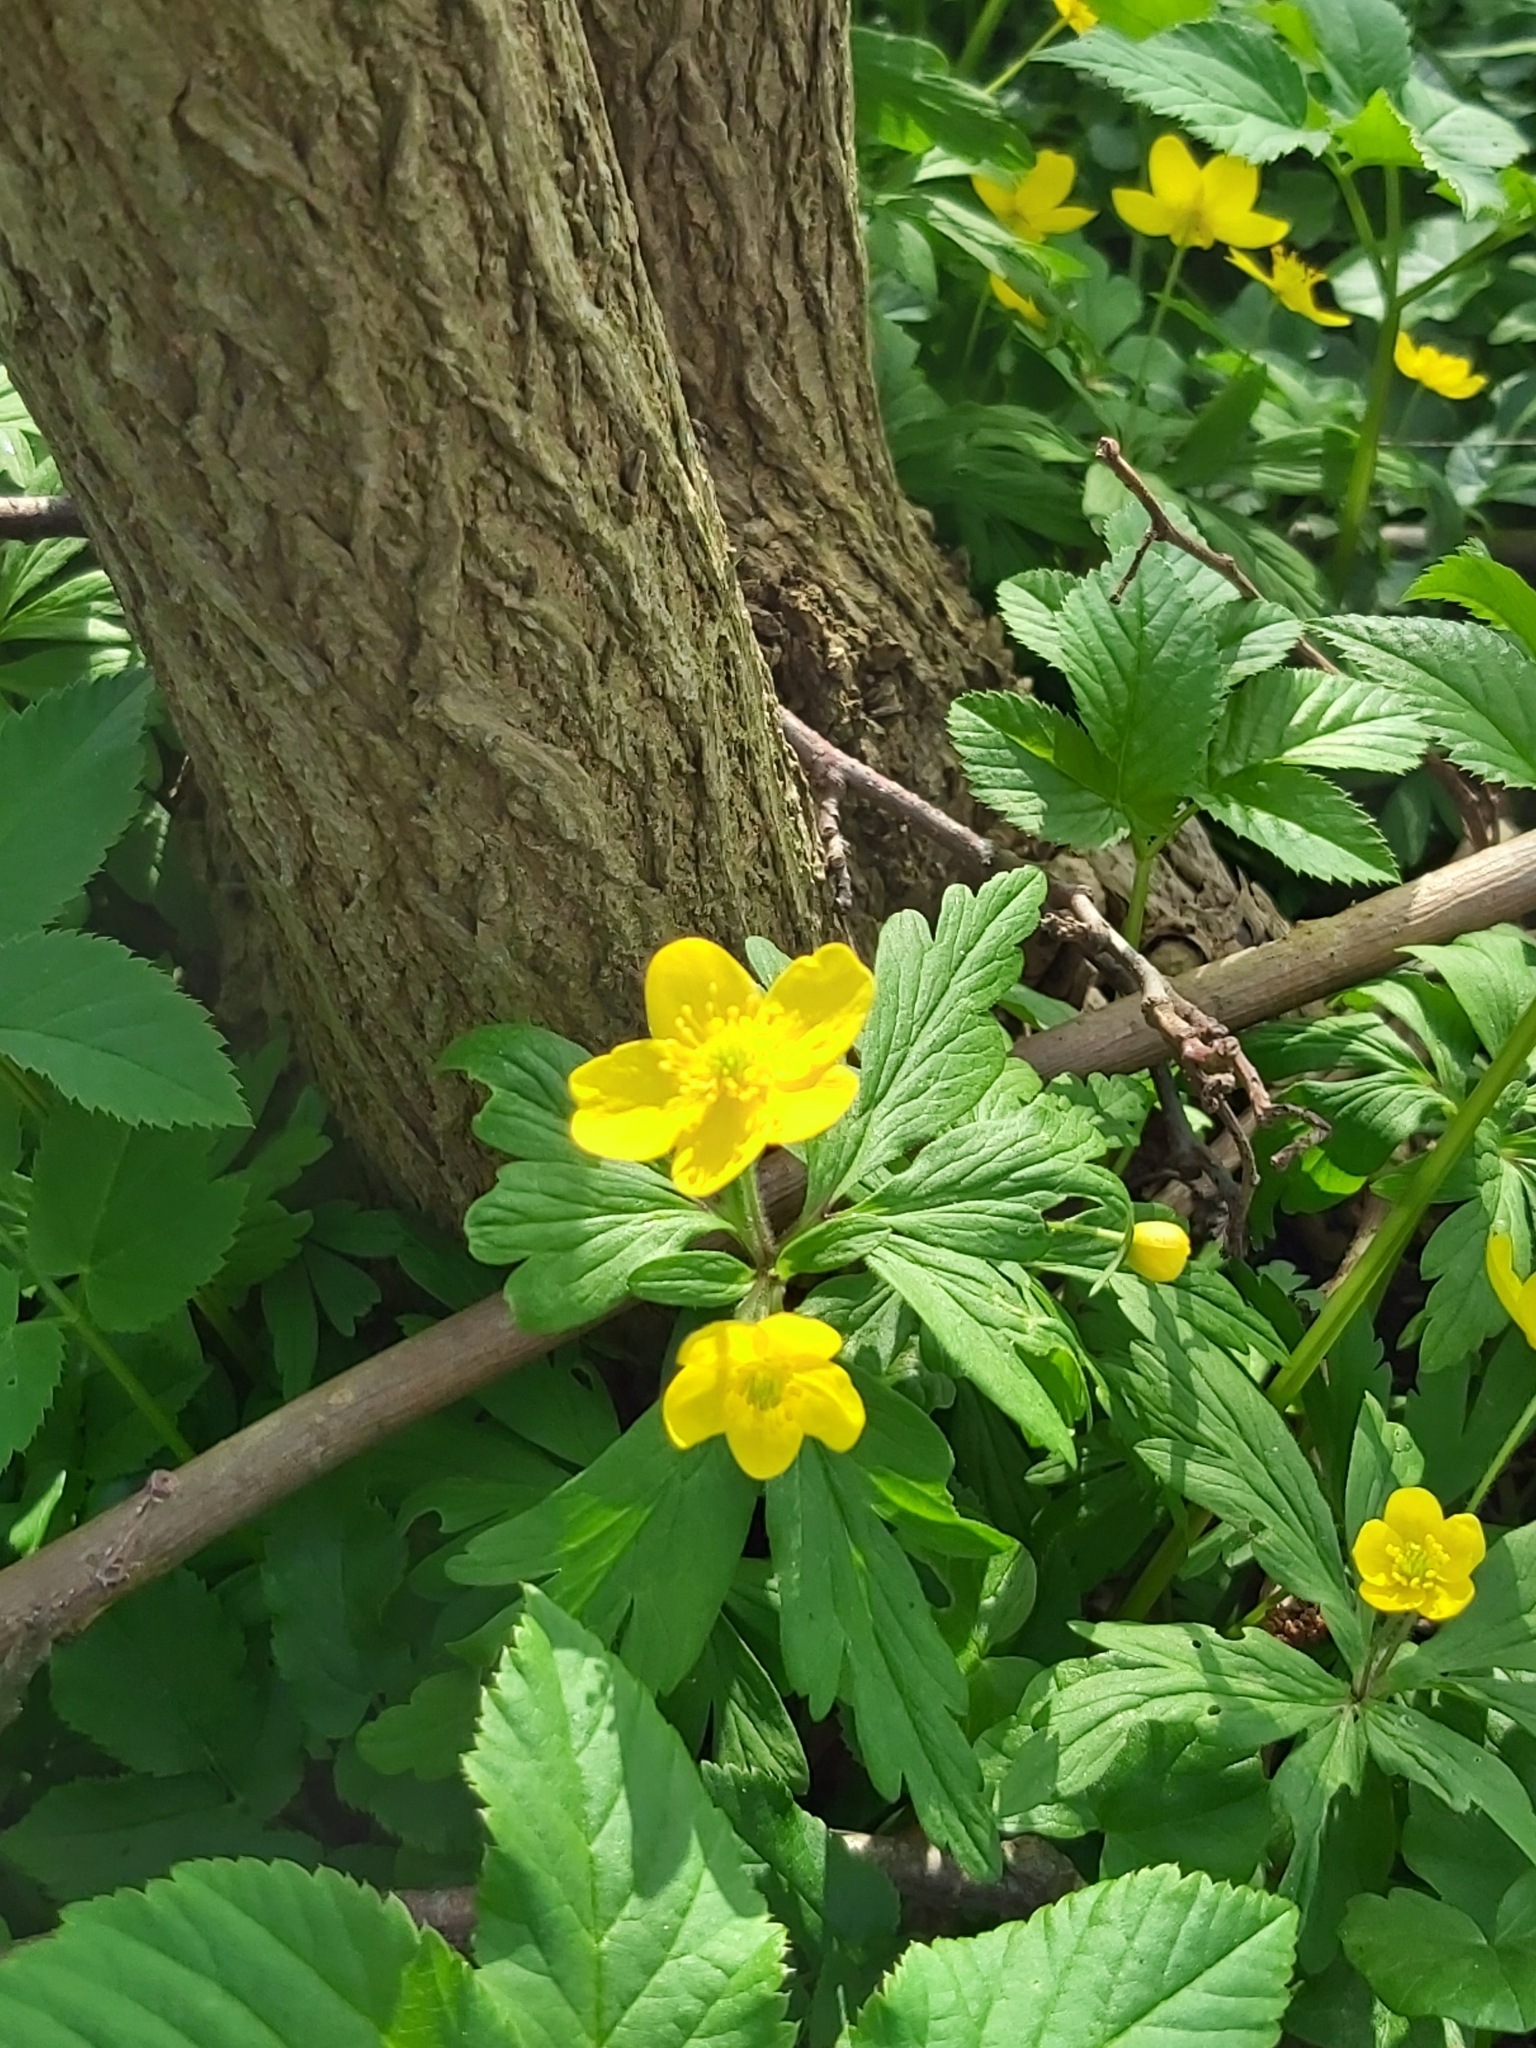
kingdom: Plantae
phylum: Tracheophyta
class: Magnoliopsida
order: Ranunculales
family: Ranunculaceae
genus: Anemone
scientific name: Anemone ranunculoides
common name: Yellow anemone
